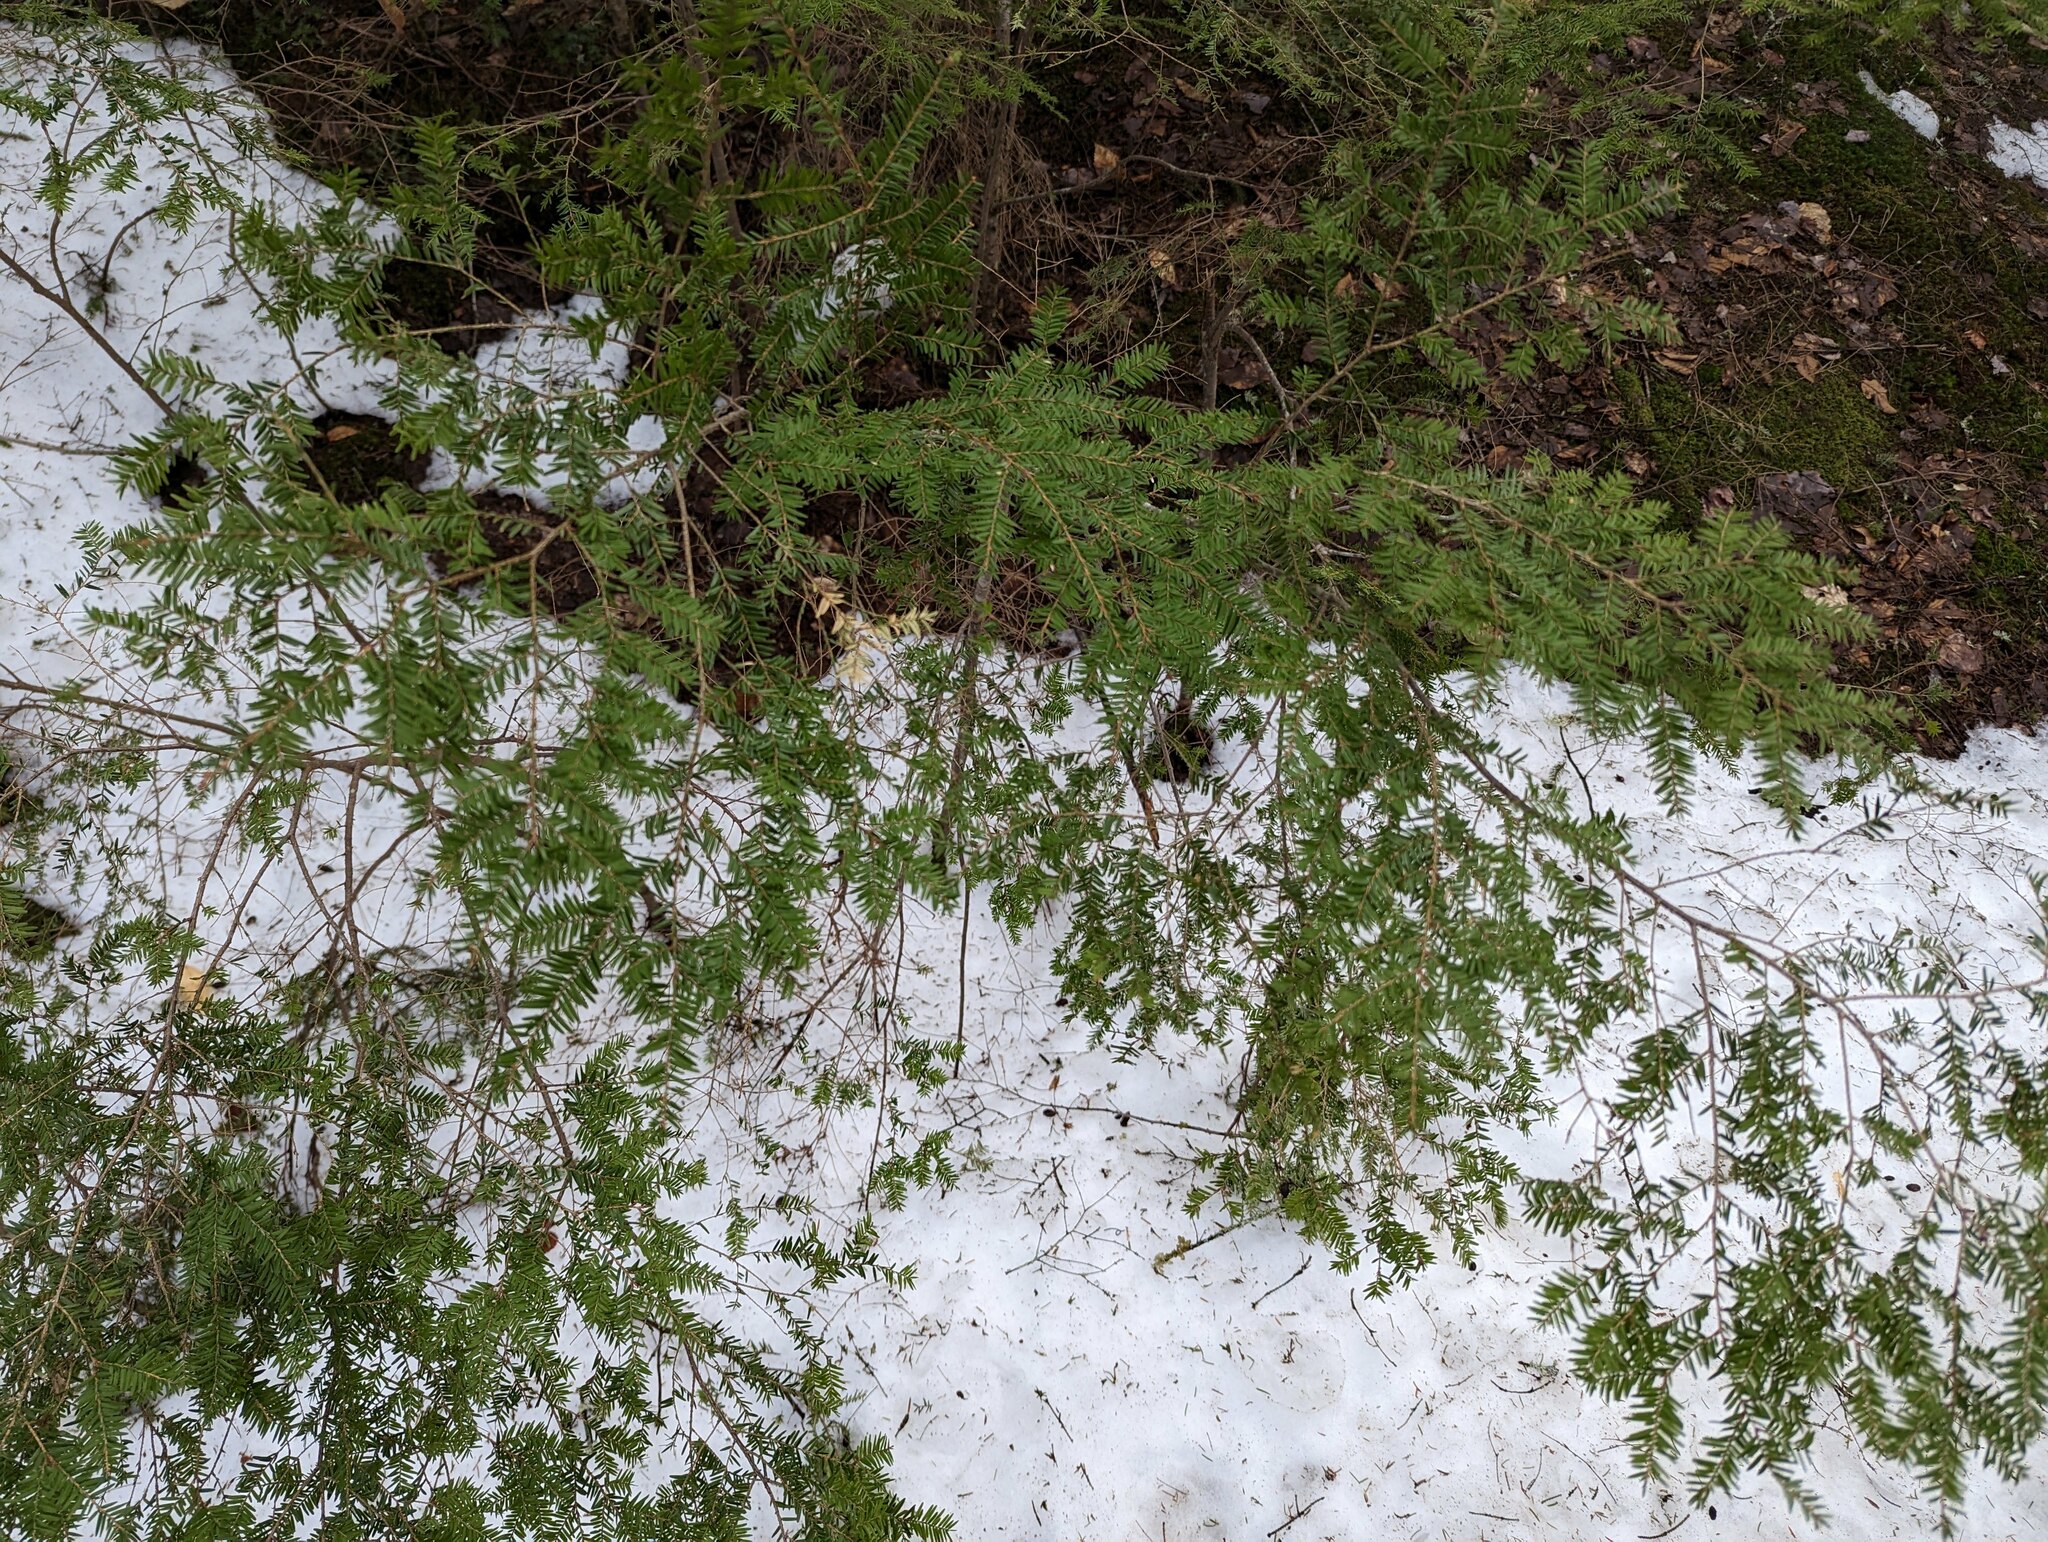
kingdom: Plantae
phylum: Tracheophyta
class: Pinopsida
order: Pinales
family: Pinaceae
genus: Tsuga
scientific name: Tsuga canadensis
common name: Eastern hemlock
